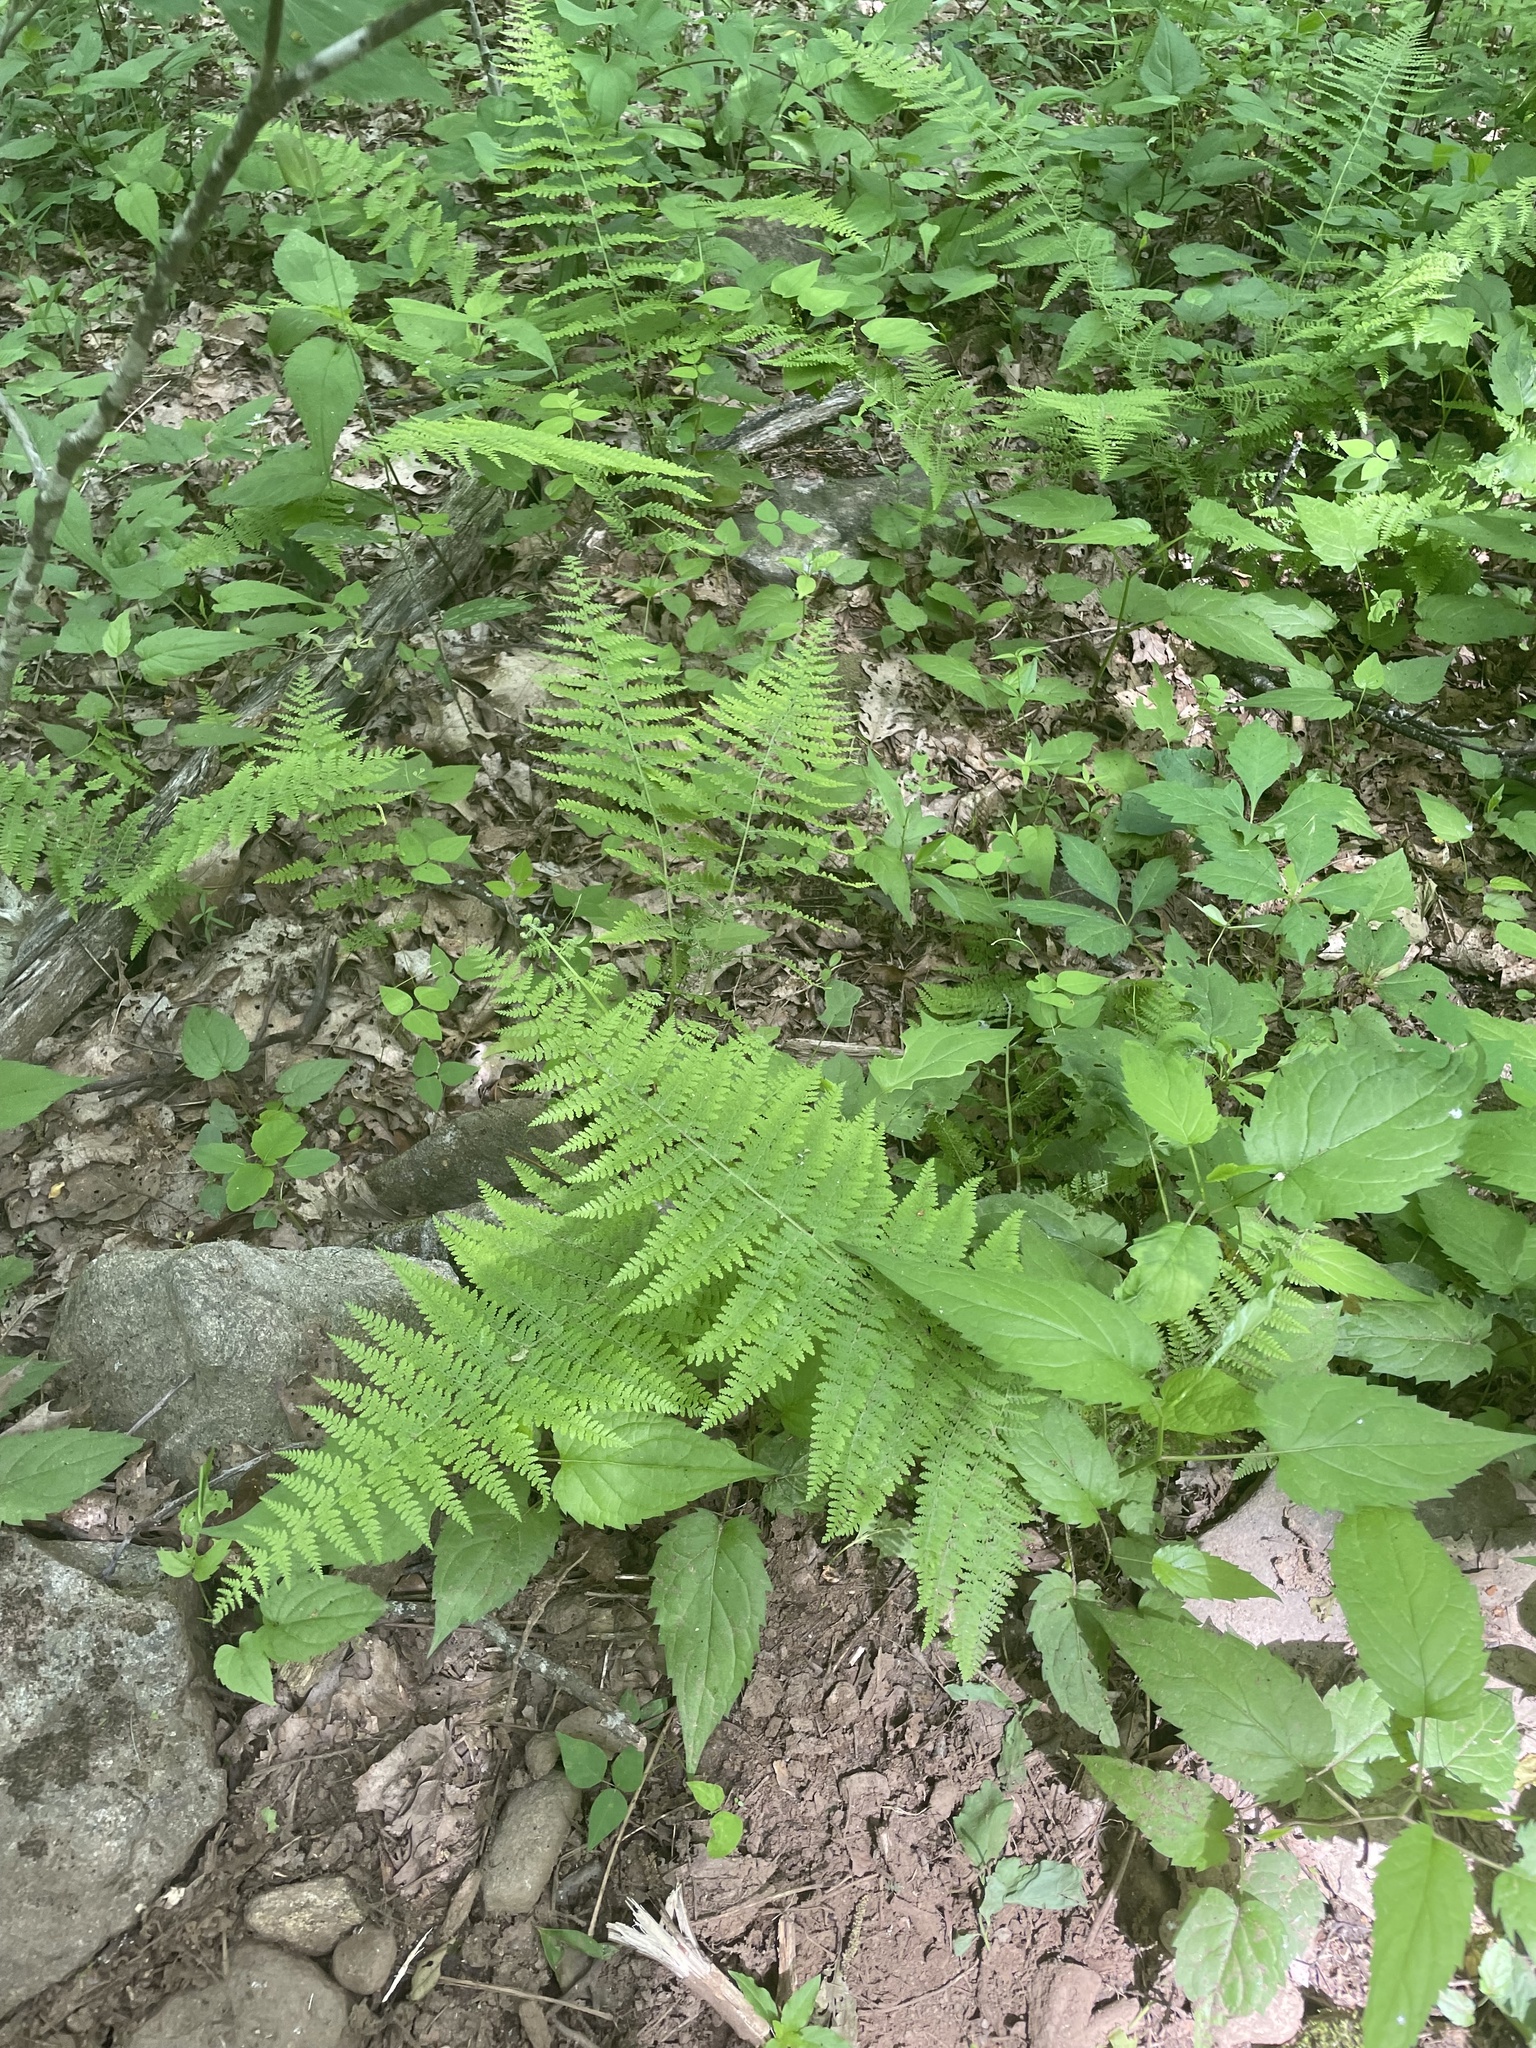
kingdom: Plantae
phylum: Tracheophyta
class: Polypodiopsida
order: Polypodiales
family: Dennstaedtiaceae
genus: Sitobolium
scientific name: Sitobolium punctilobum
